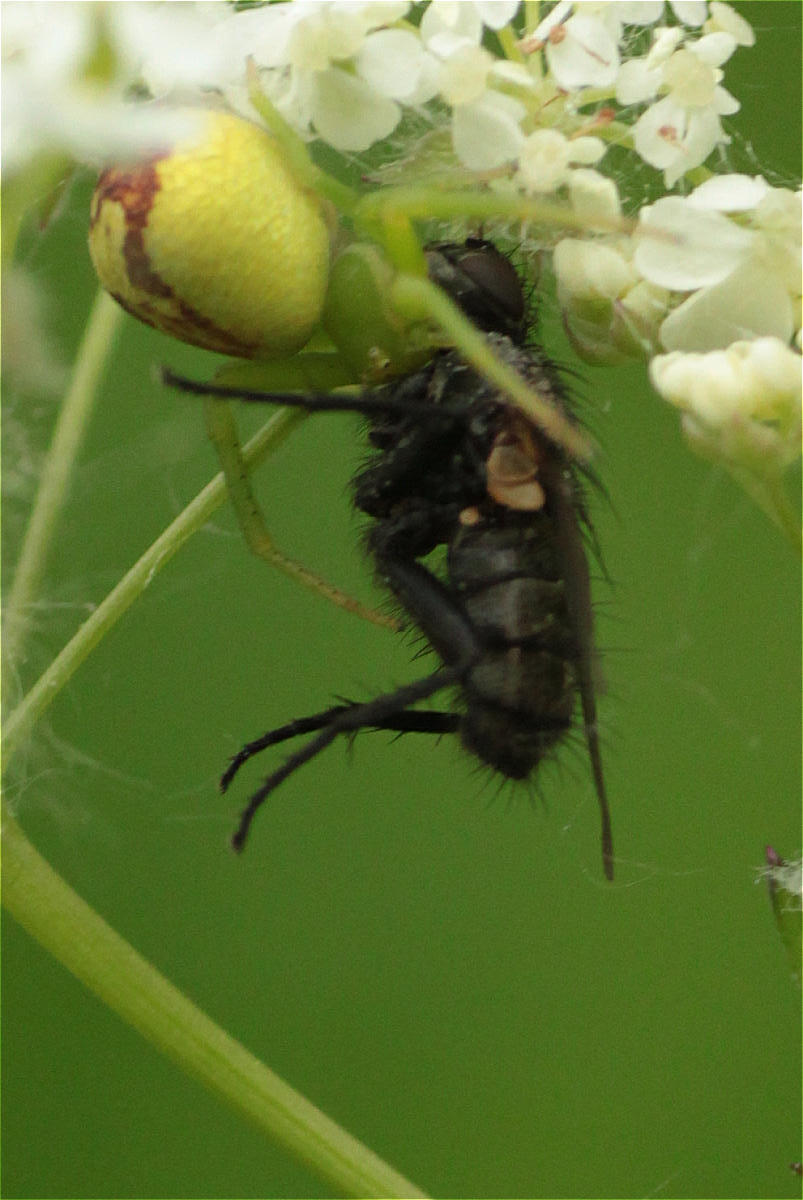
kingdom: Animalia
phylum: Arthropoda
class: Arachnida
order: Araneae
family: Thomisidae
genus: Ebrechtella
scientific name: Ebrechtella tricuspidata
